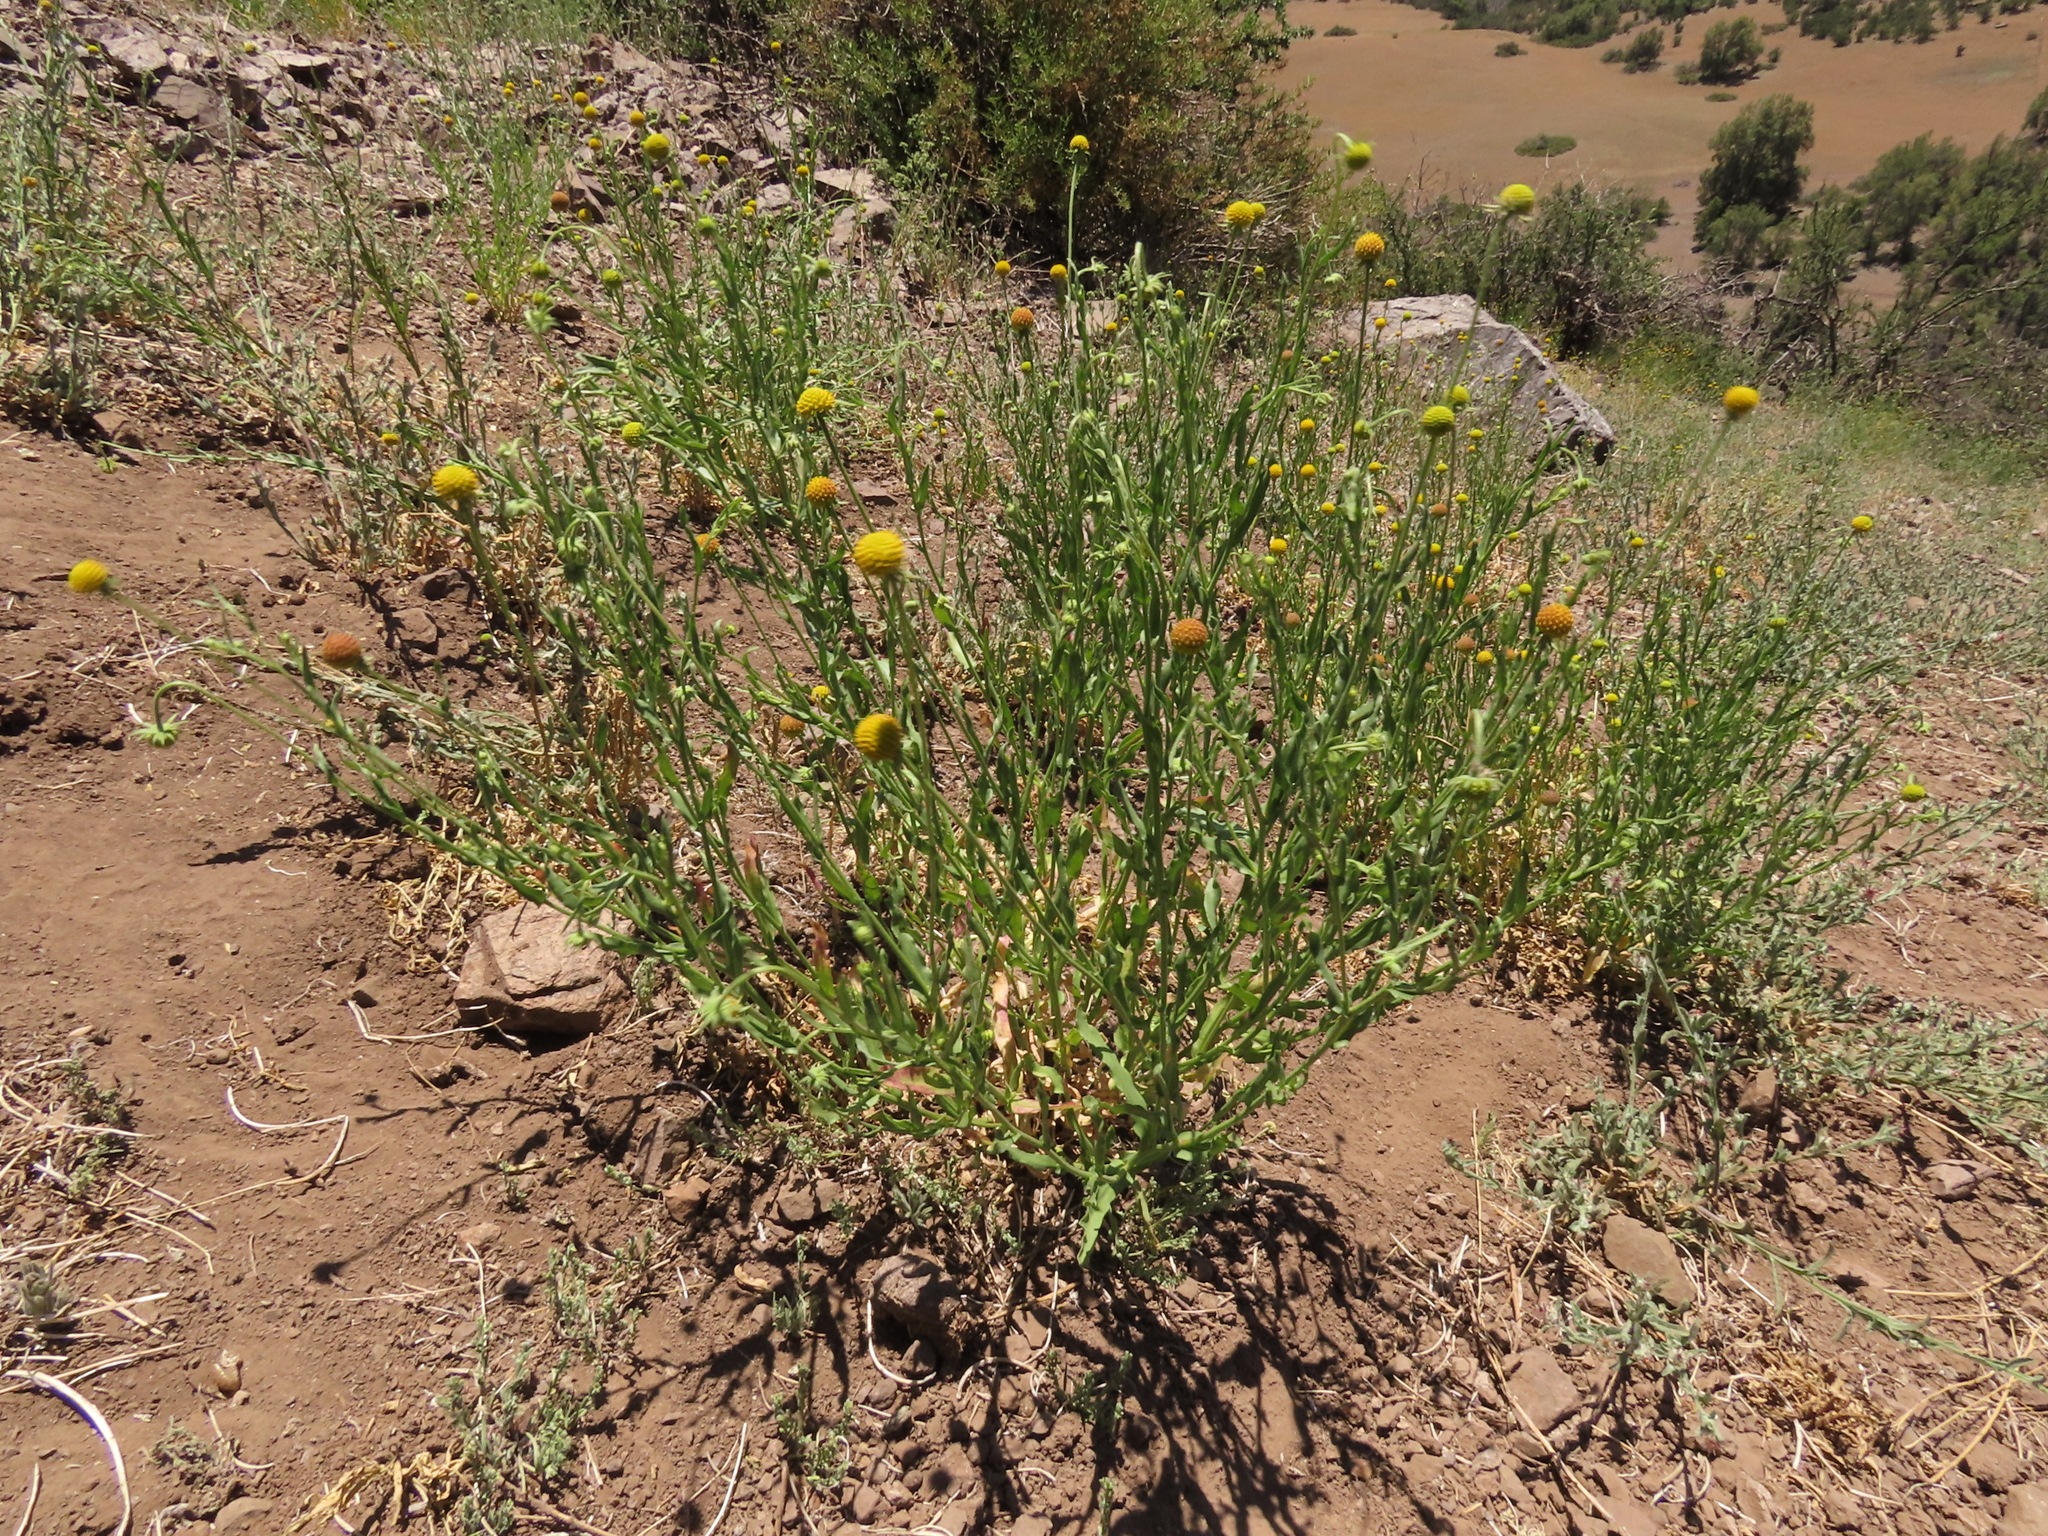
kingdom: Plantae
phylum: Tracheophyta
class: Magnoliopsida
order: Asterales
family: Asteraceae
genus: Helenium
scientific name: Helenium aromaticum
